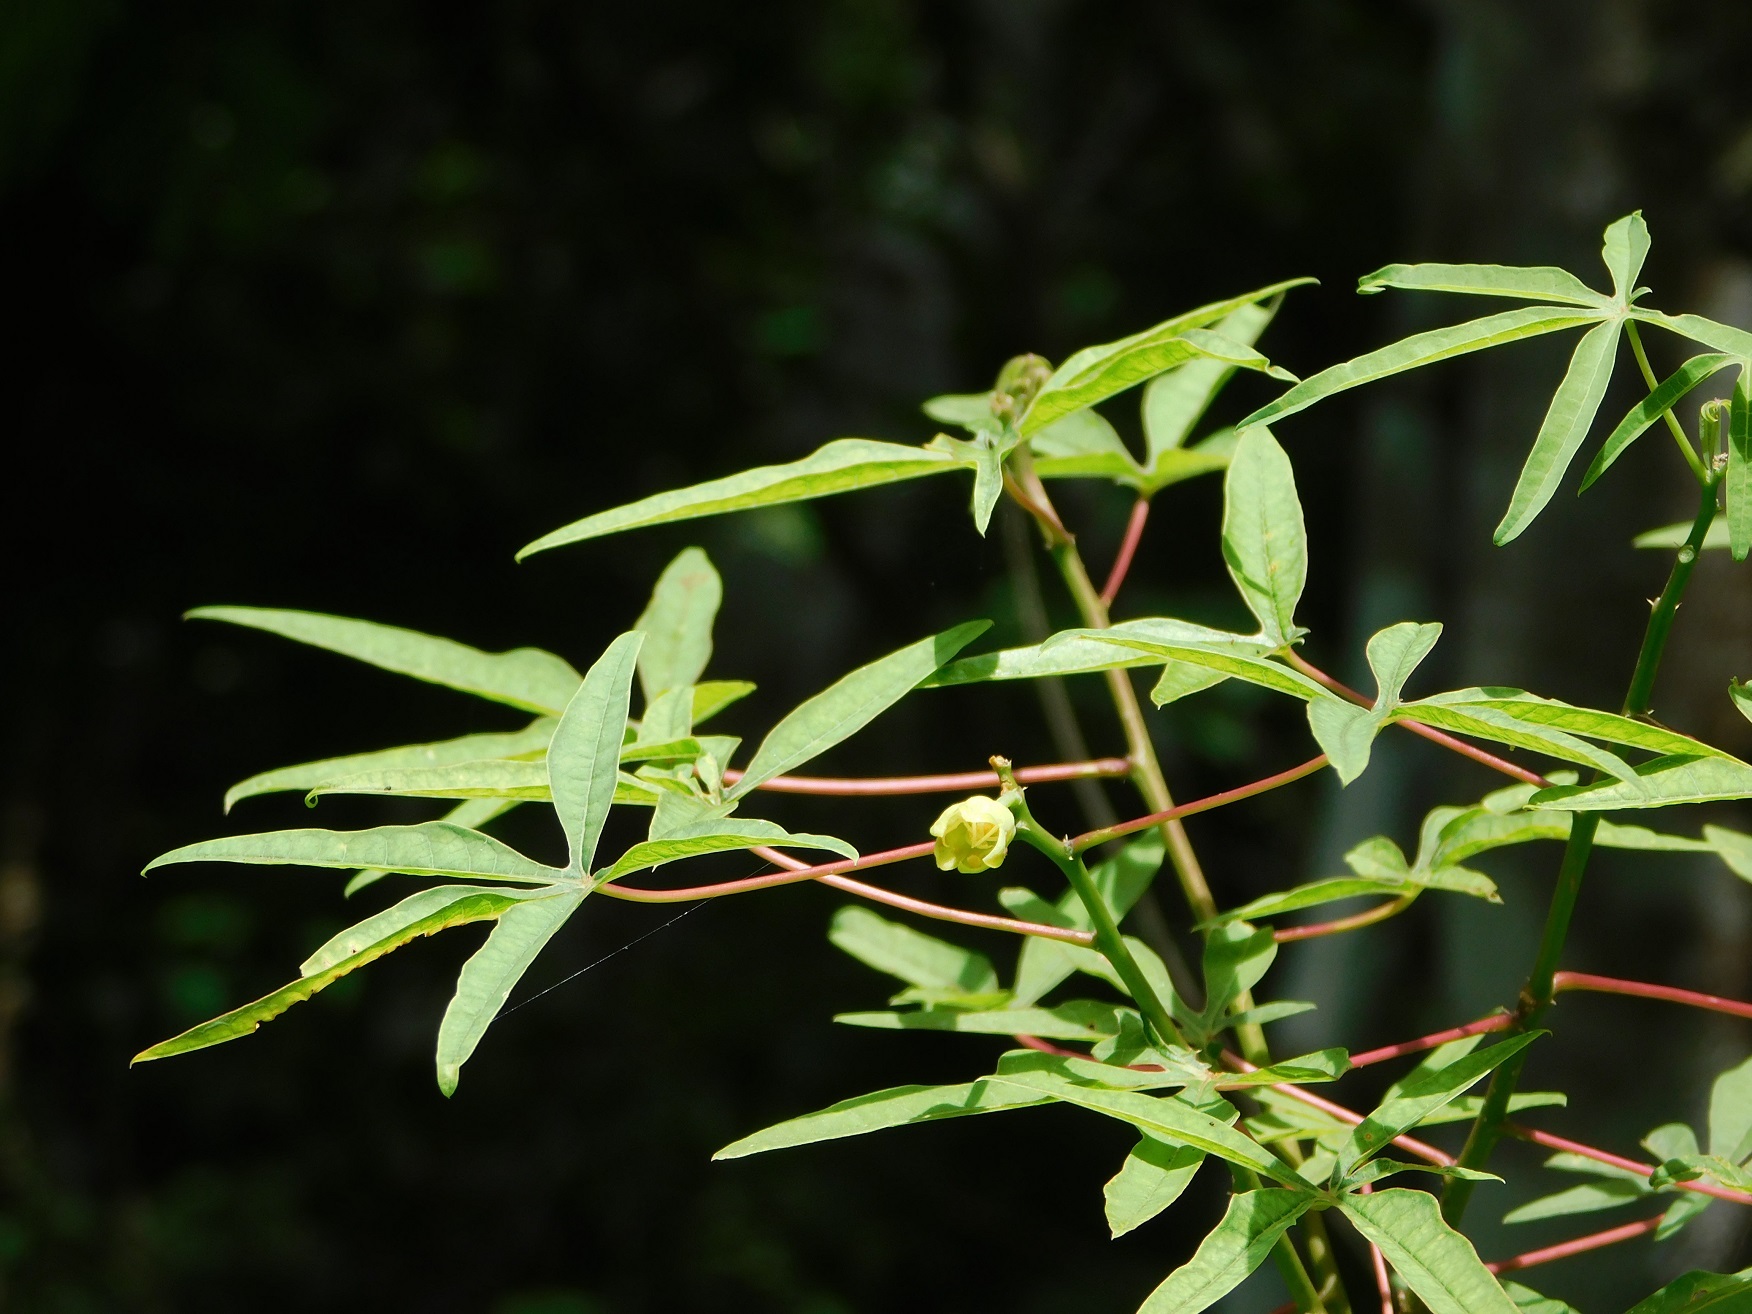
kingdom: Plantae
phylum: Tracheophyta
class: Magnoliopsida
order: Malpighiales
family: Euphorbiaceae
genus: Manihot
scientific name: Manihot rhomboidea
